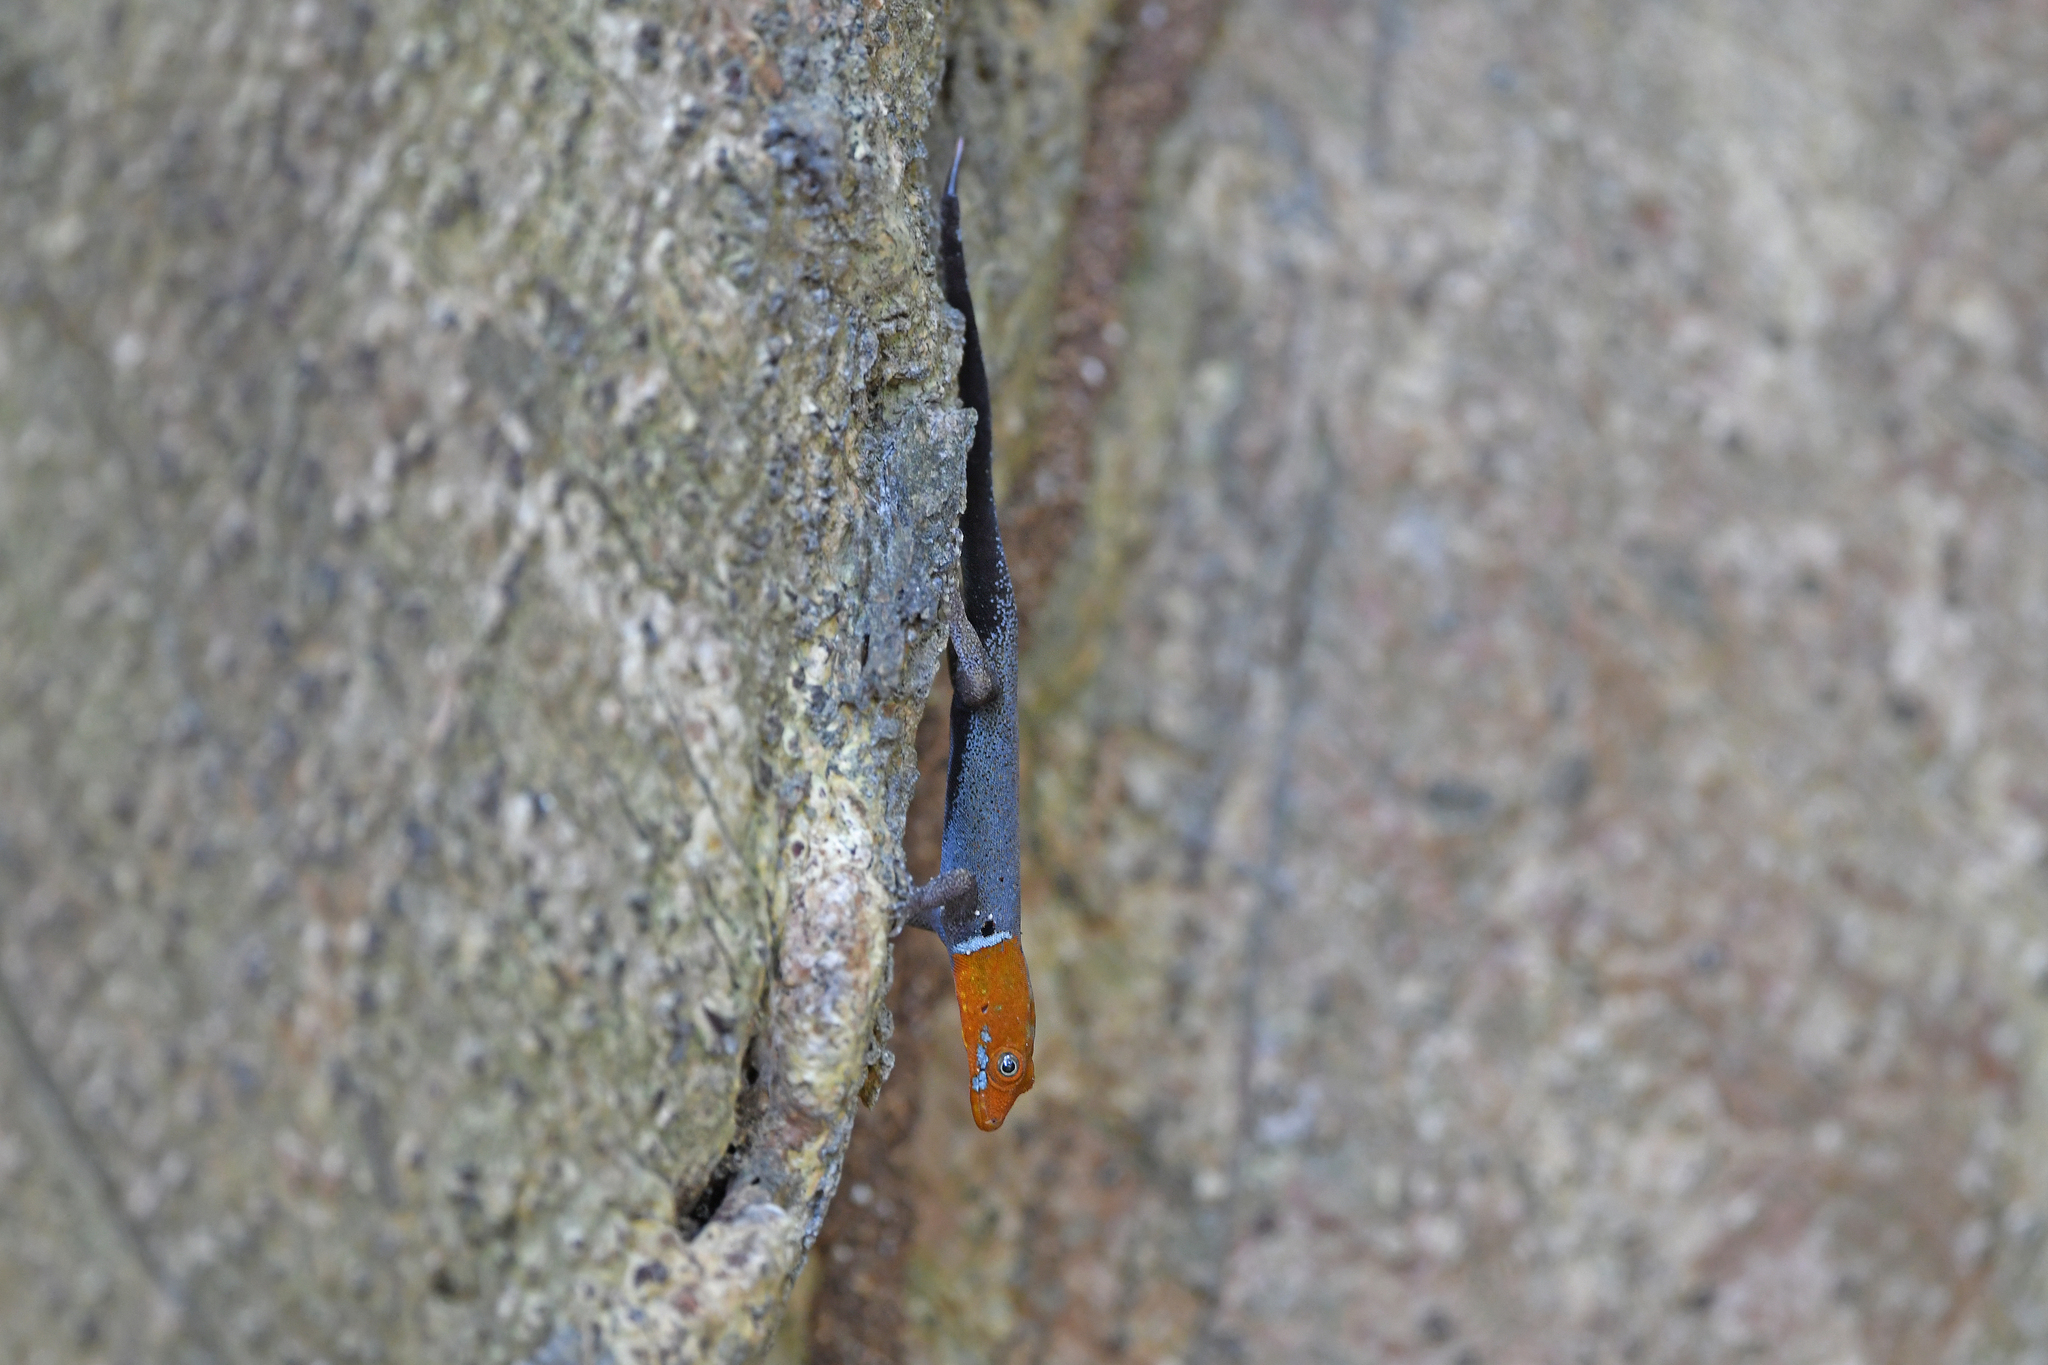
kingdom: Animalia
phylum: Chordata
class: Squamata
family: Sphaerodactylidae
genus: Gonatodes
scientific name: Gonatodes albogularis
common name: Yellow-headed gecko
